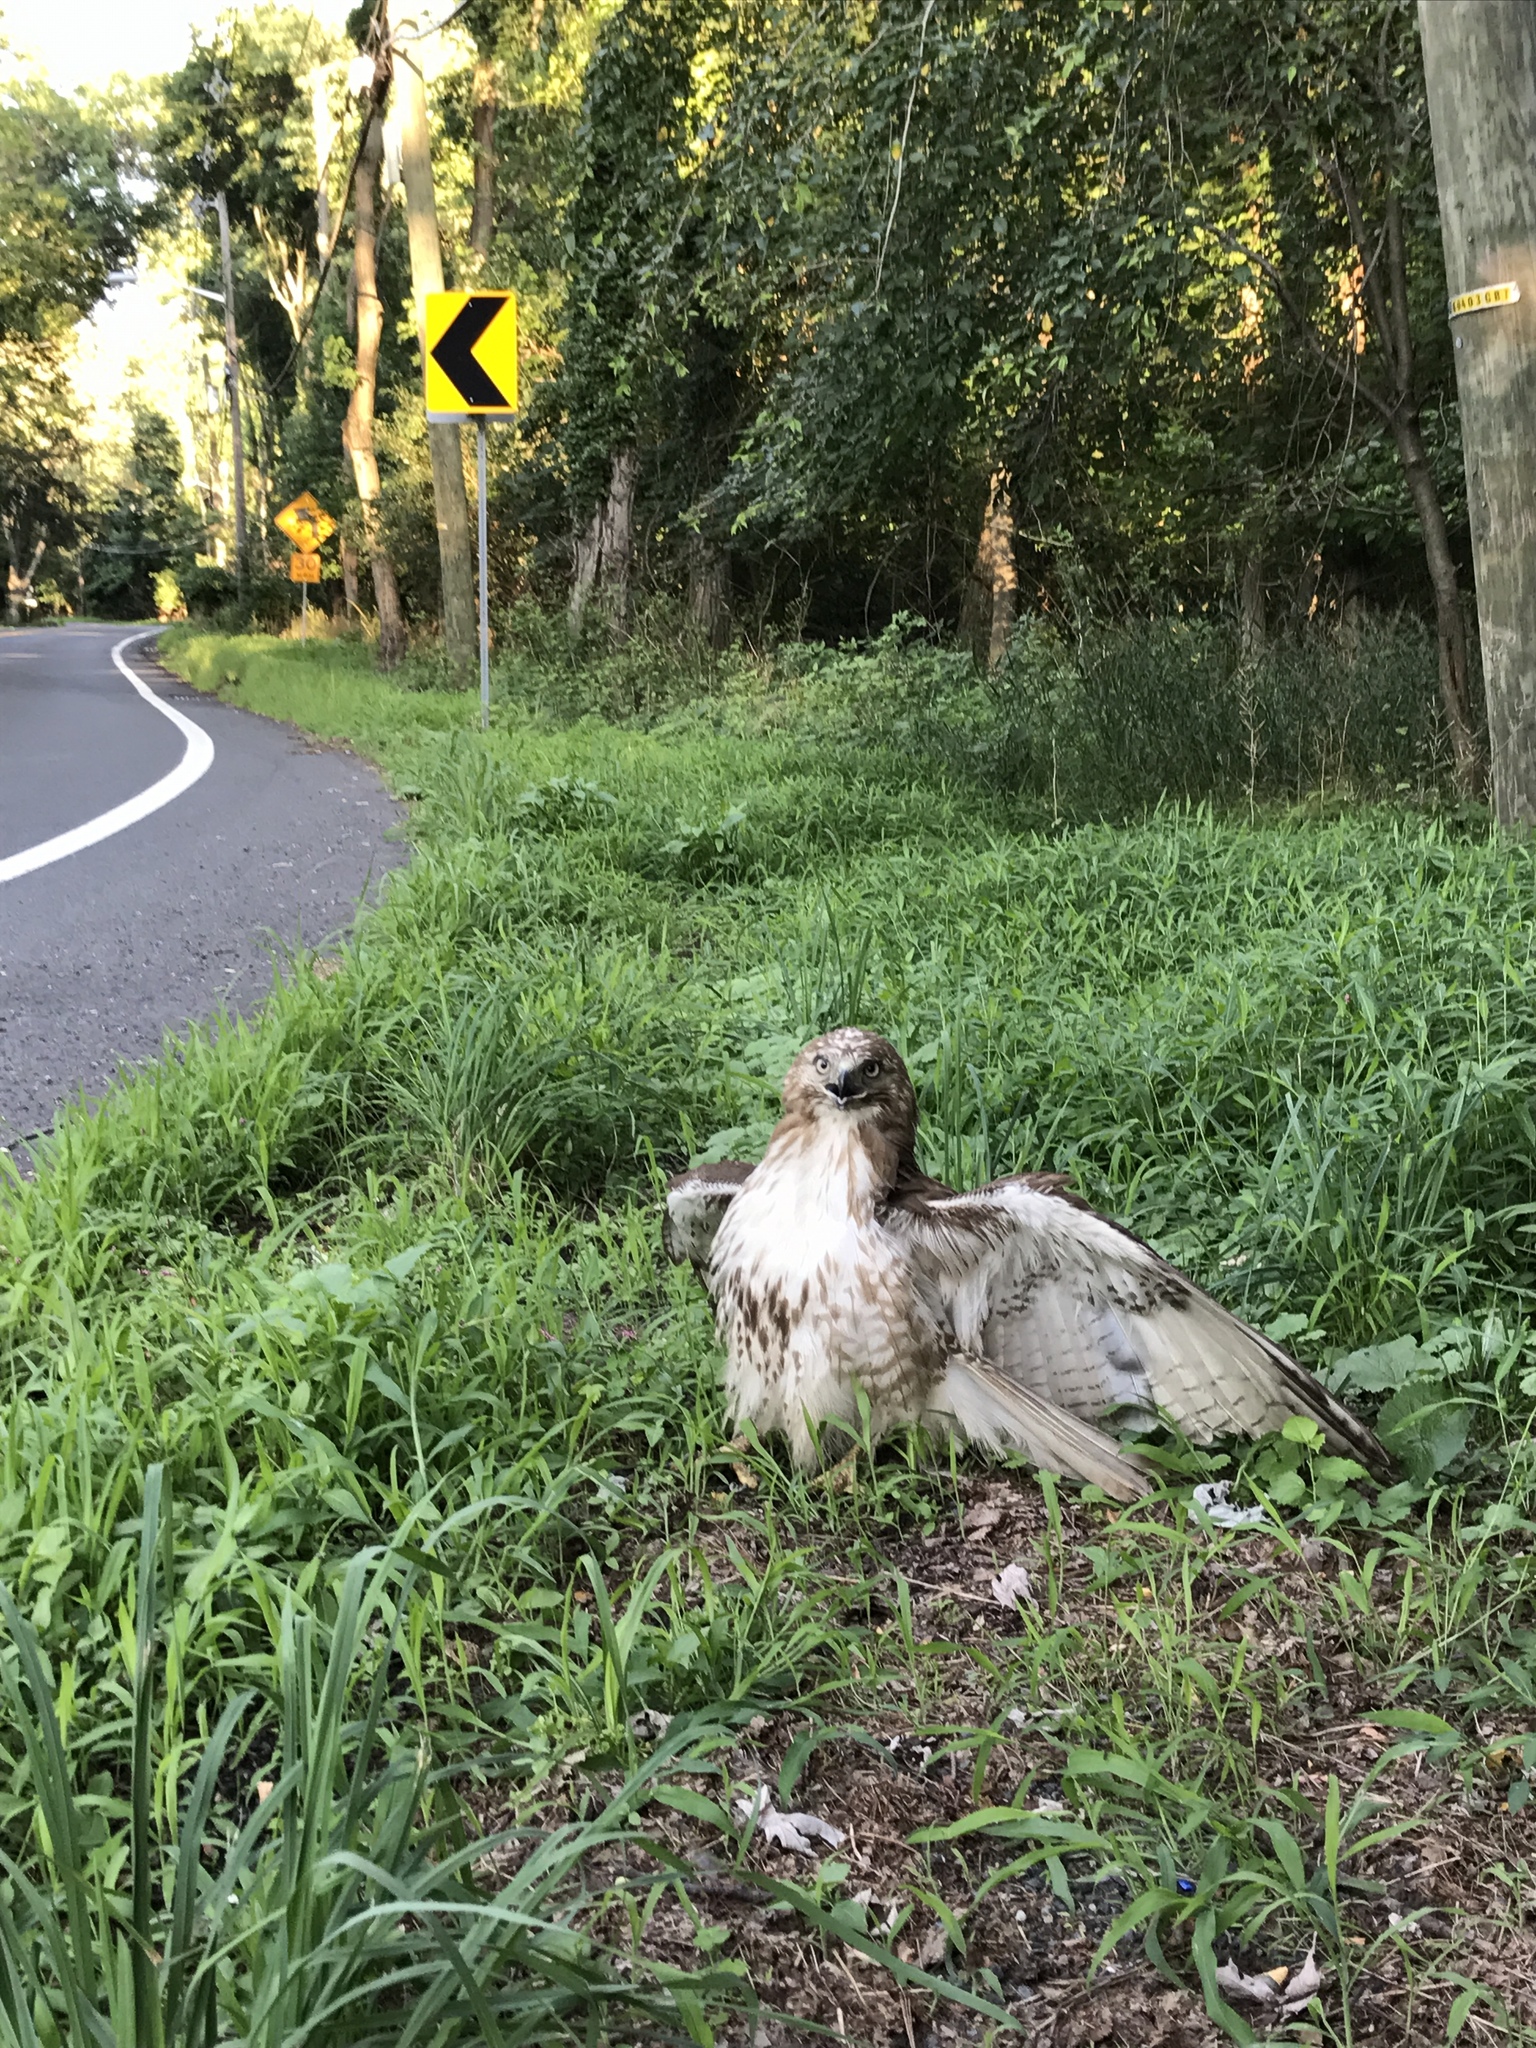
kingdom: Animalia
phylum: Chordata
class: Aves
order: Accipitriformes
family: Accipitridae
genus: Buteo
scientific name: Buteo jamaicensis
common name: Red-tailed hawk
